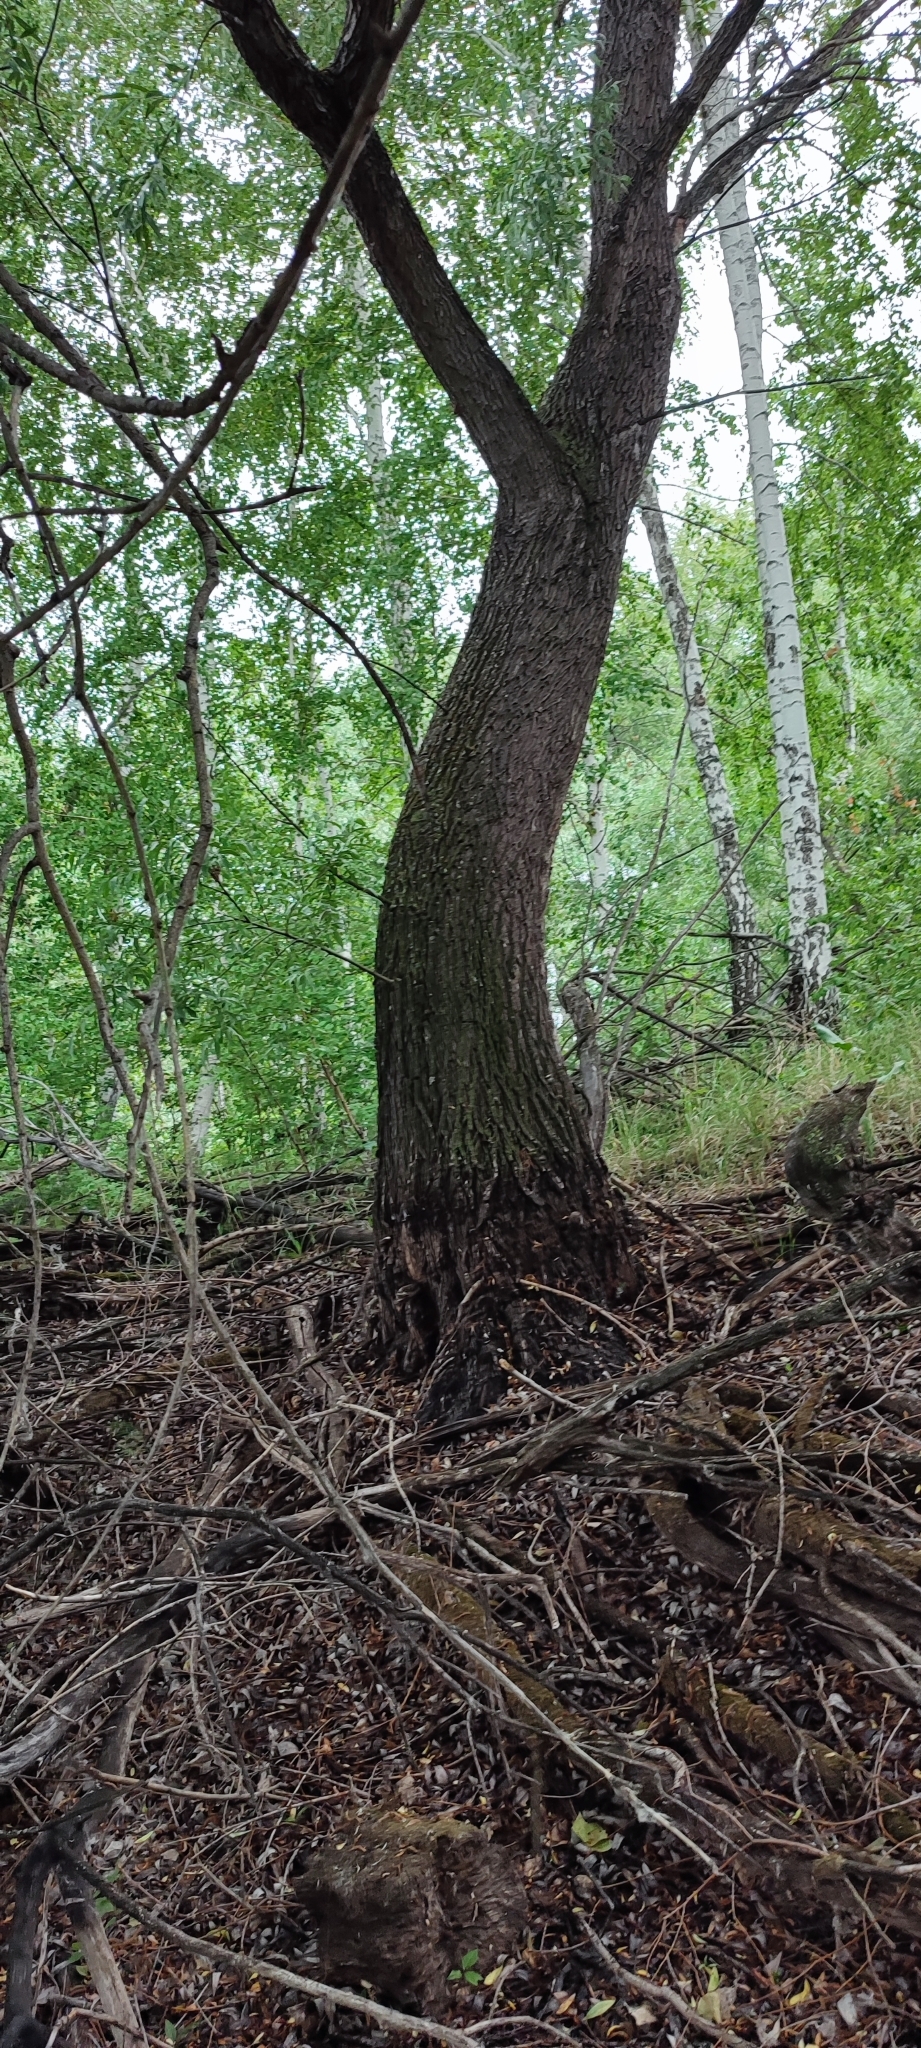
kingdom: Plantae
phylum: Tracheophyta
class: Magnoliopsida
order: Malpighiales
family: Salicaceae
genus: Salix
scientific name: Salix alba
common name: White willow
